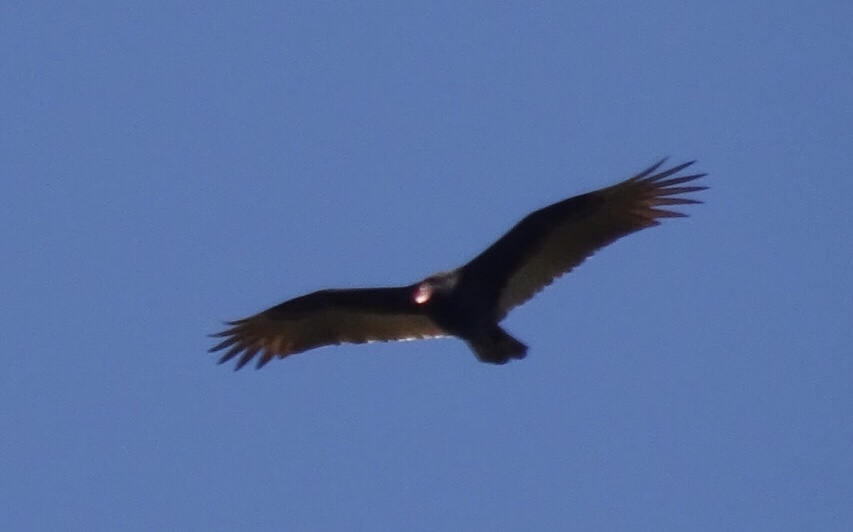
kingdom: Animalia
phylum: Chordata
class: Aves
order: Accipitriformes
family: Cathartidae
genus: Cathartes
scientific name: Cathartes aura
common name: Turkey vulture
